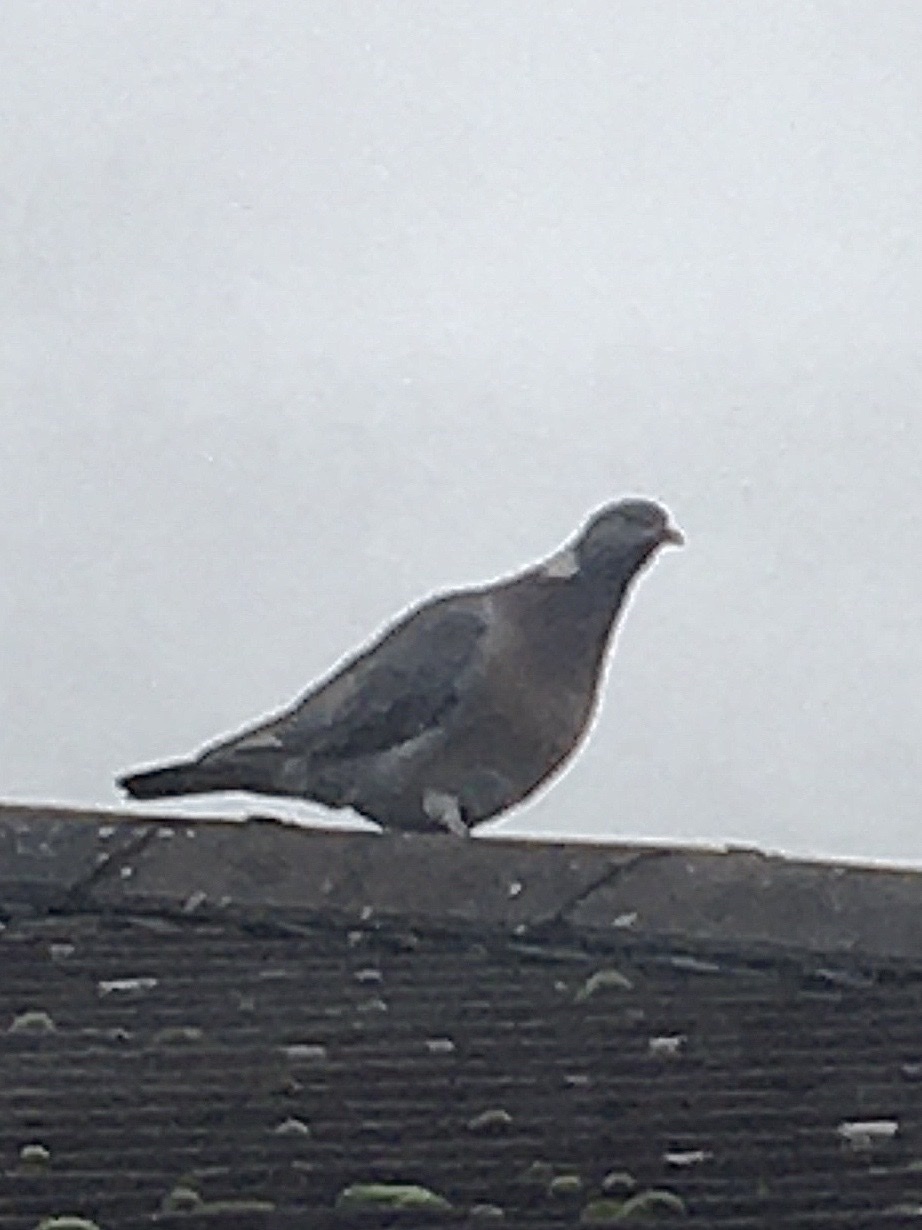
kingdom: Animalia
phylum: Chordata
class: Aves
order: Columbiformes
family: Columbidae
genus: Columba
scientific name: Columba palumbus
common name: Common wood pigeon
